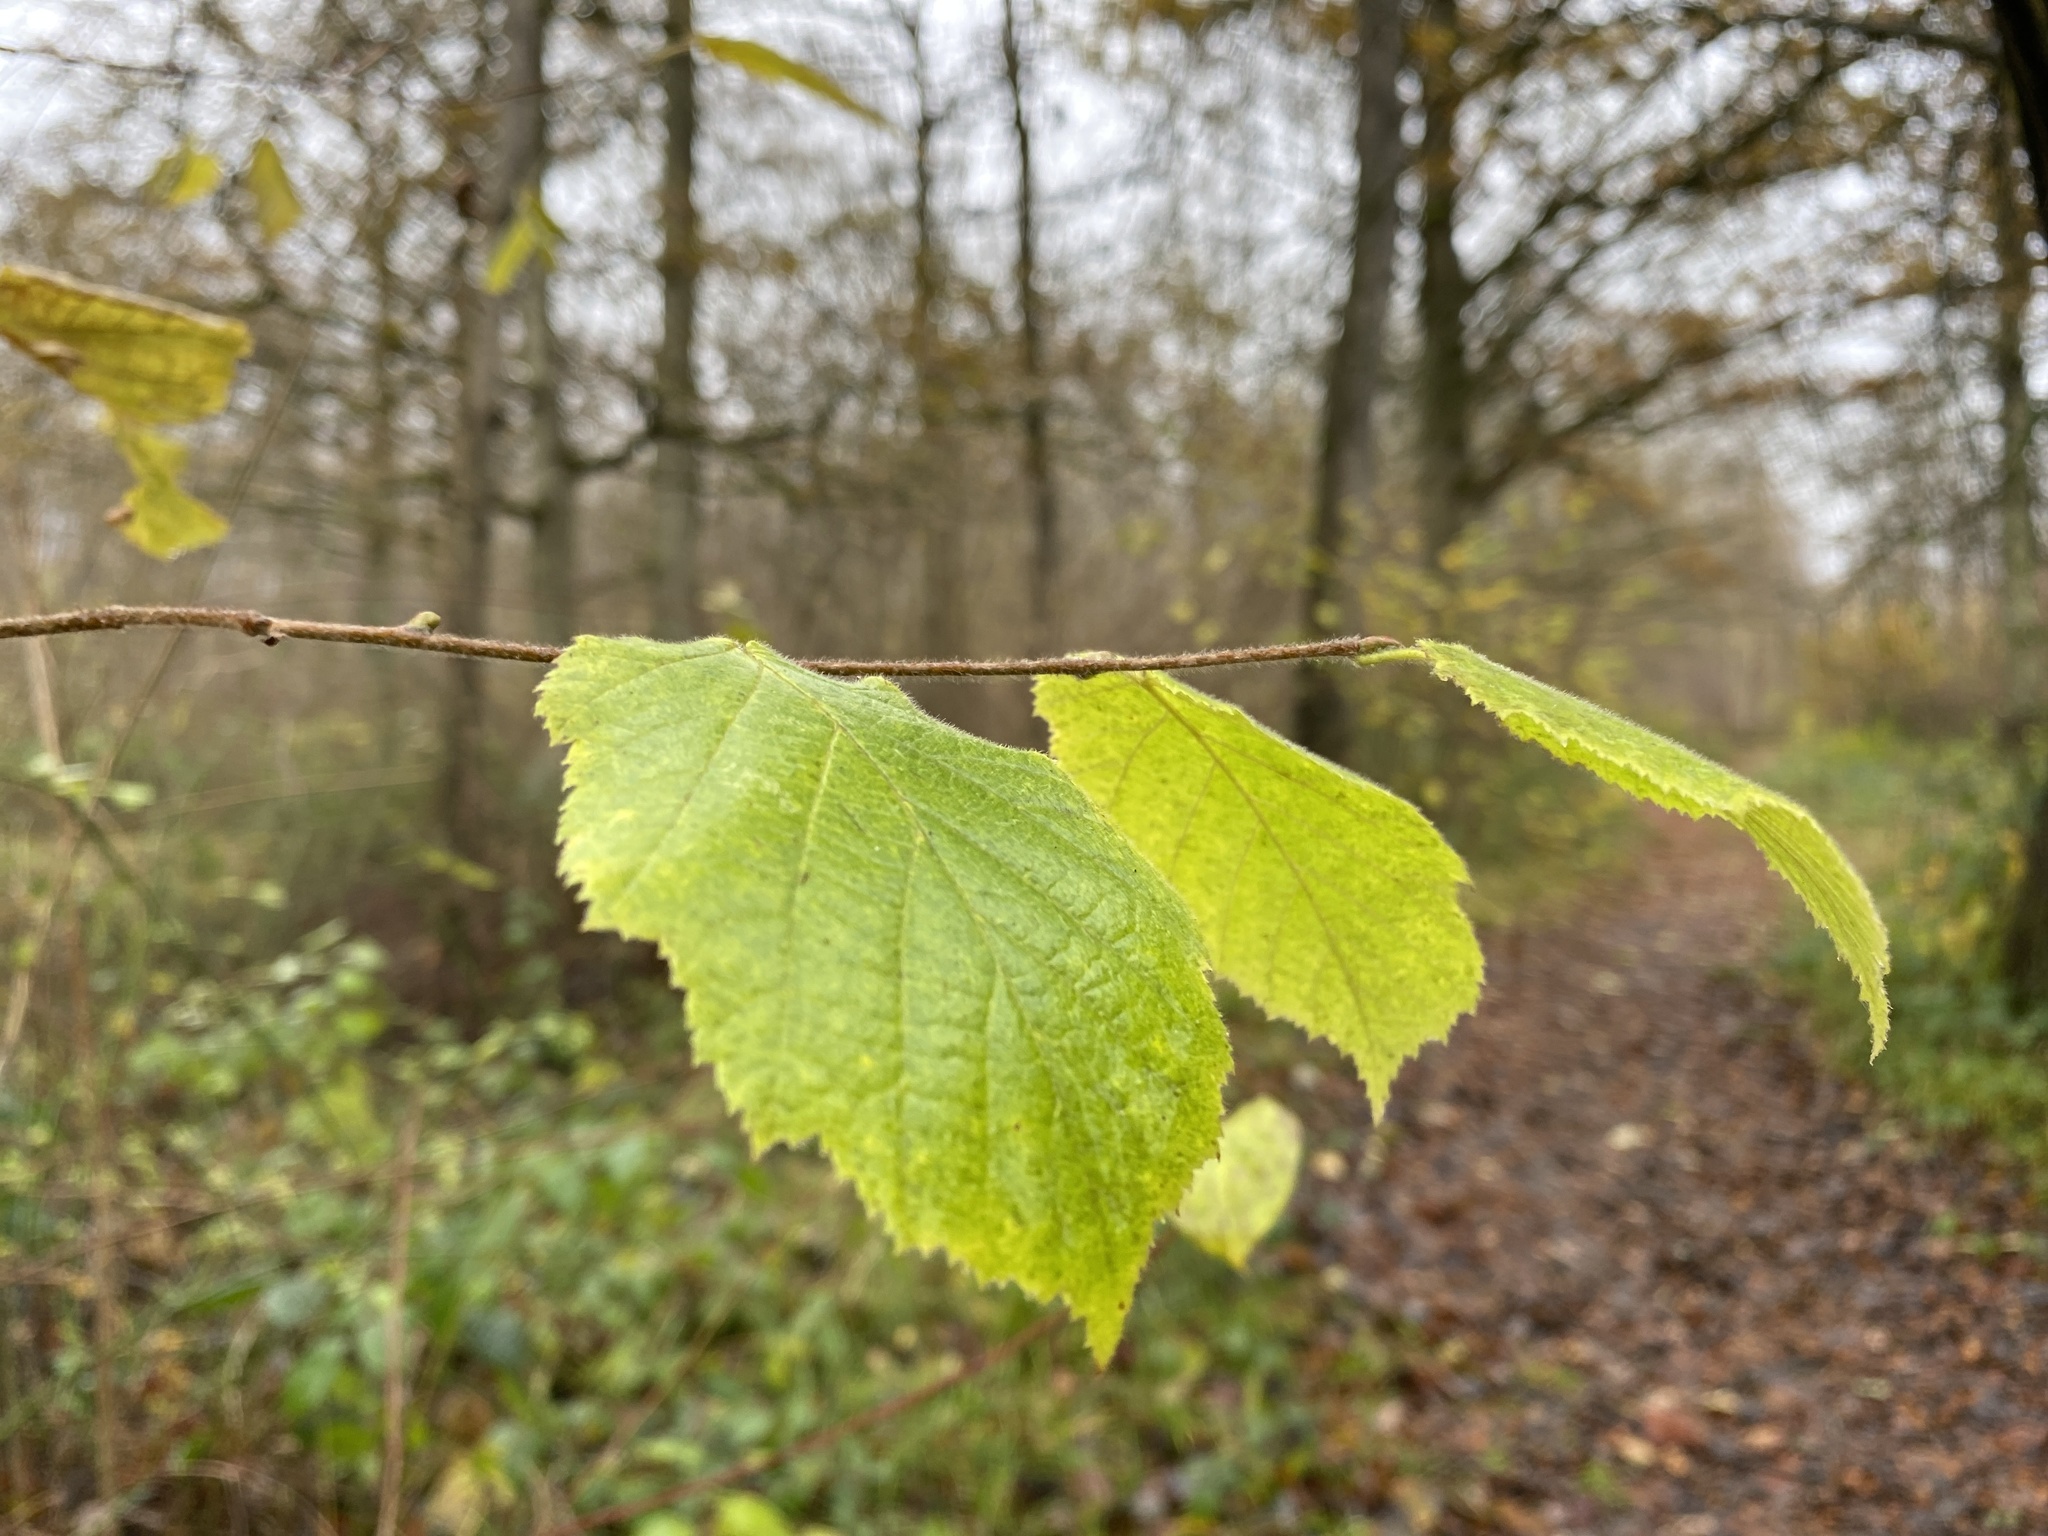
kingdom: Plantae
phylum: Tracheophyta
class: Magnoliopsida
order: Fagales
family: Betulaceae
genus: Corylus
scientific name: Corylus avellana
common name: European hazel
